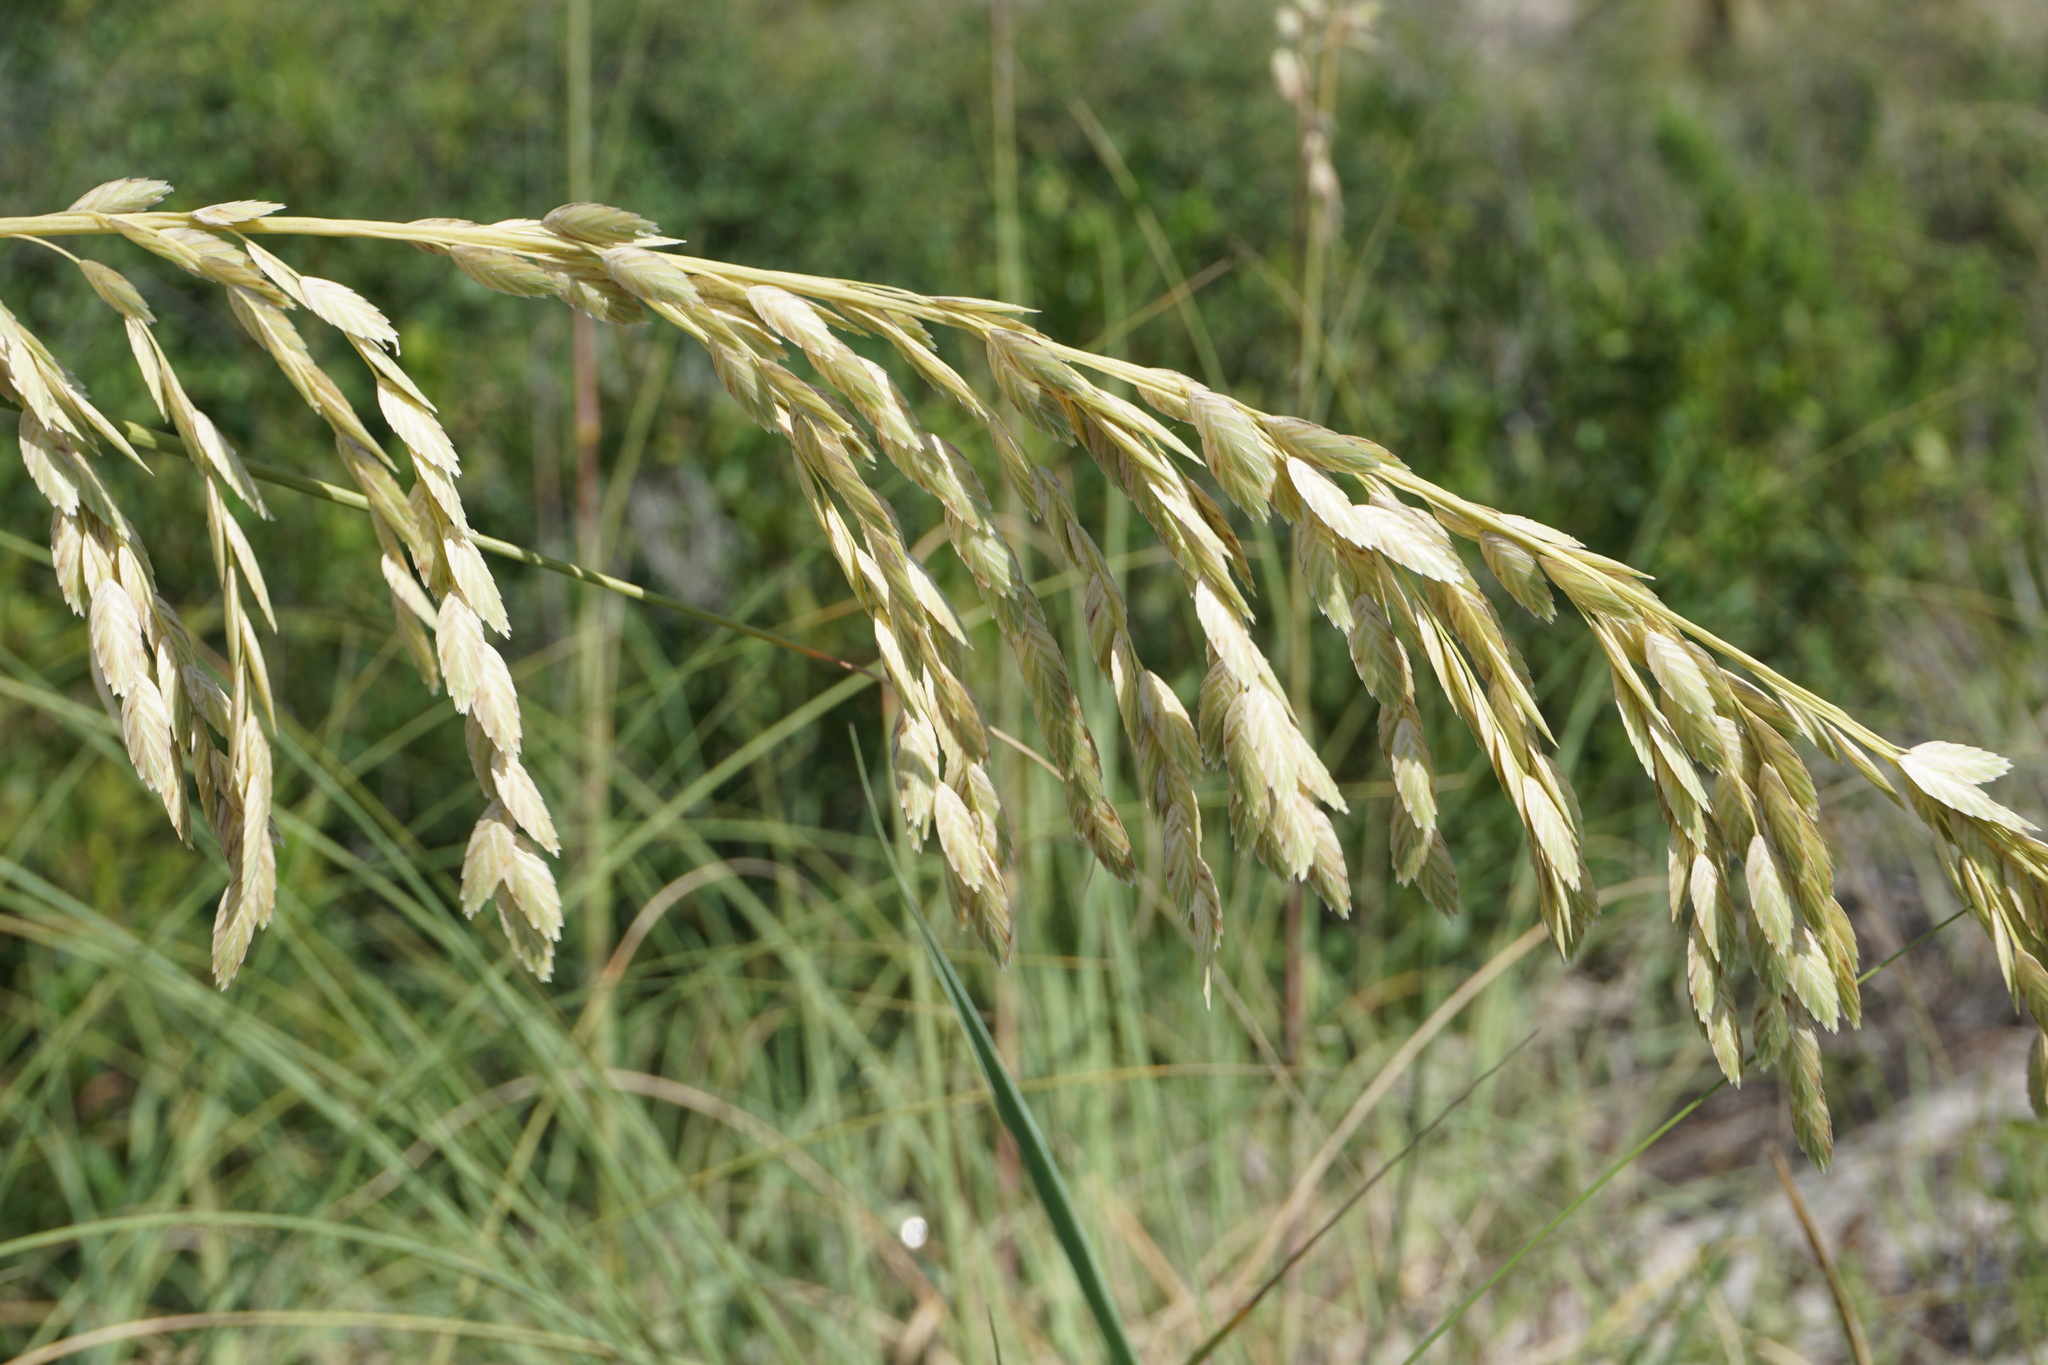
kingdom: Plantae
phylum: Tracheophyta
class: Liliopsida
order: Poales
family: Poaceae
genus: Uniola
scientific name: Uniola paniculata
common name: Seaside-oats
